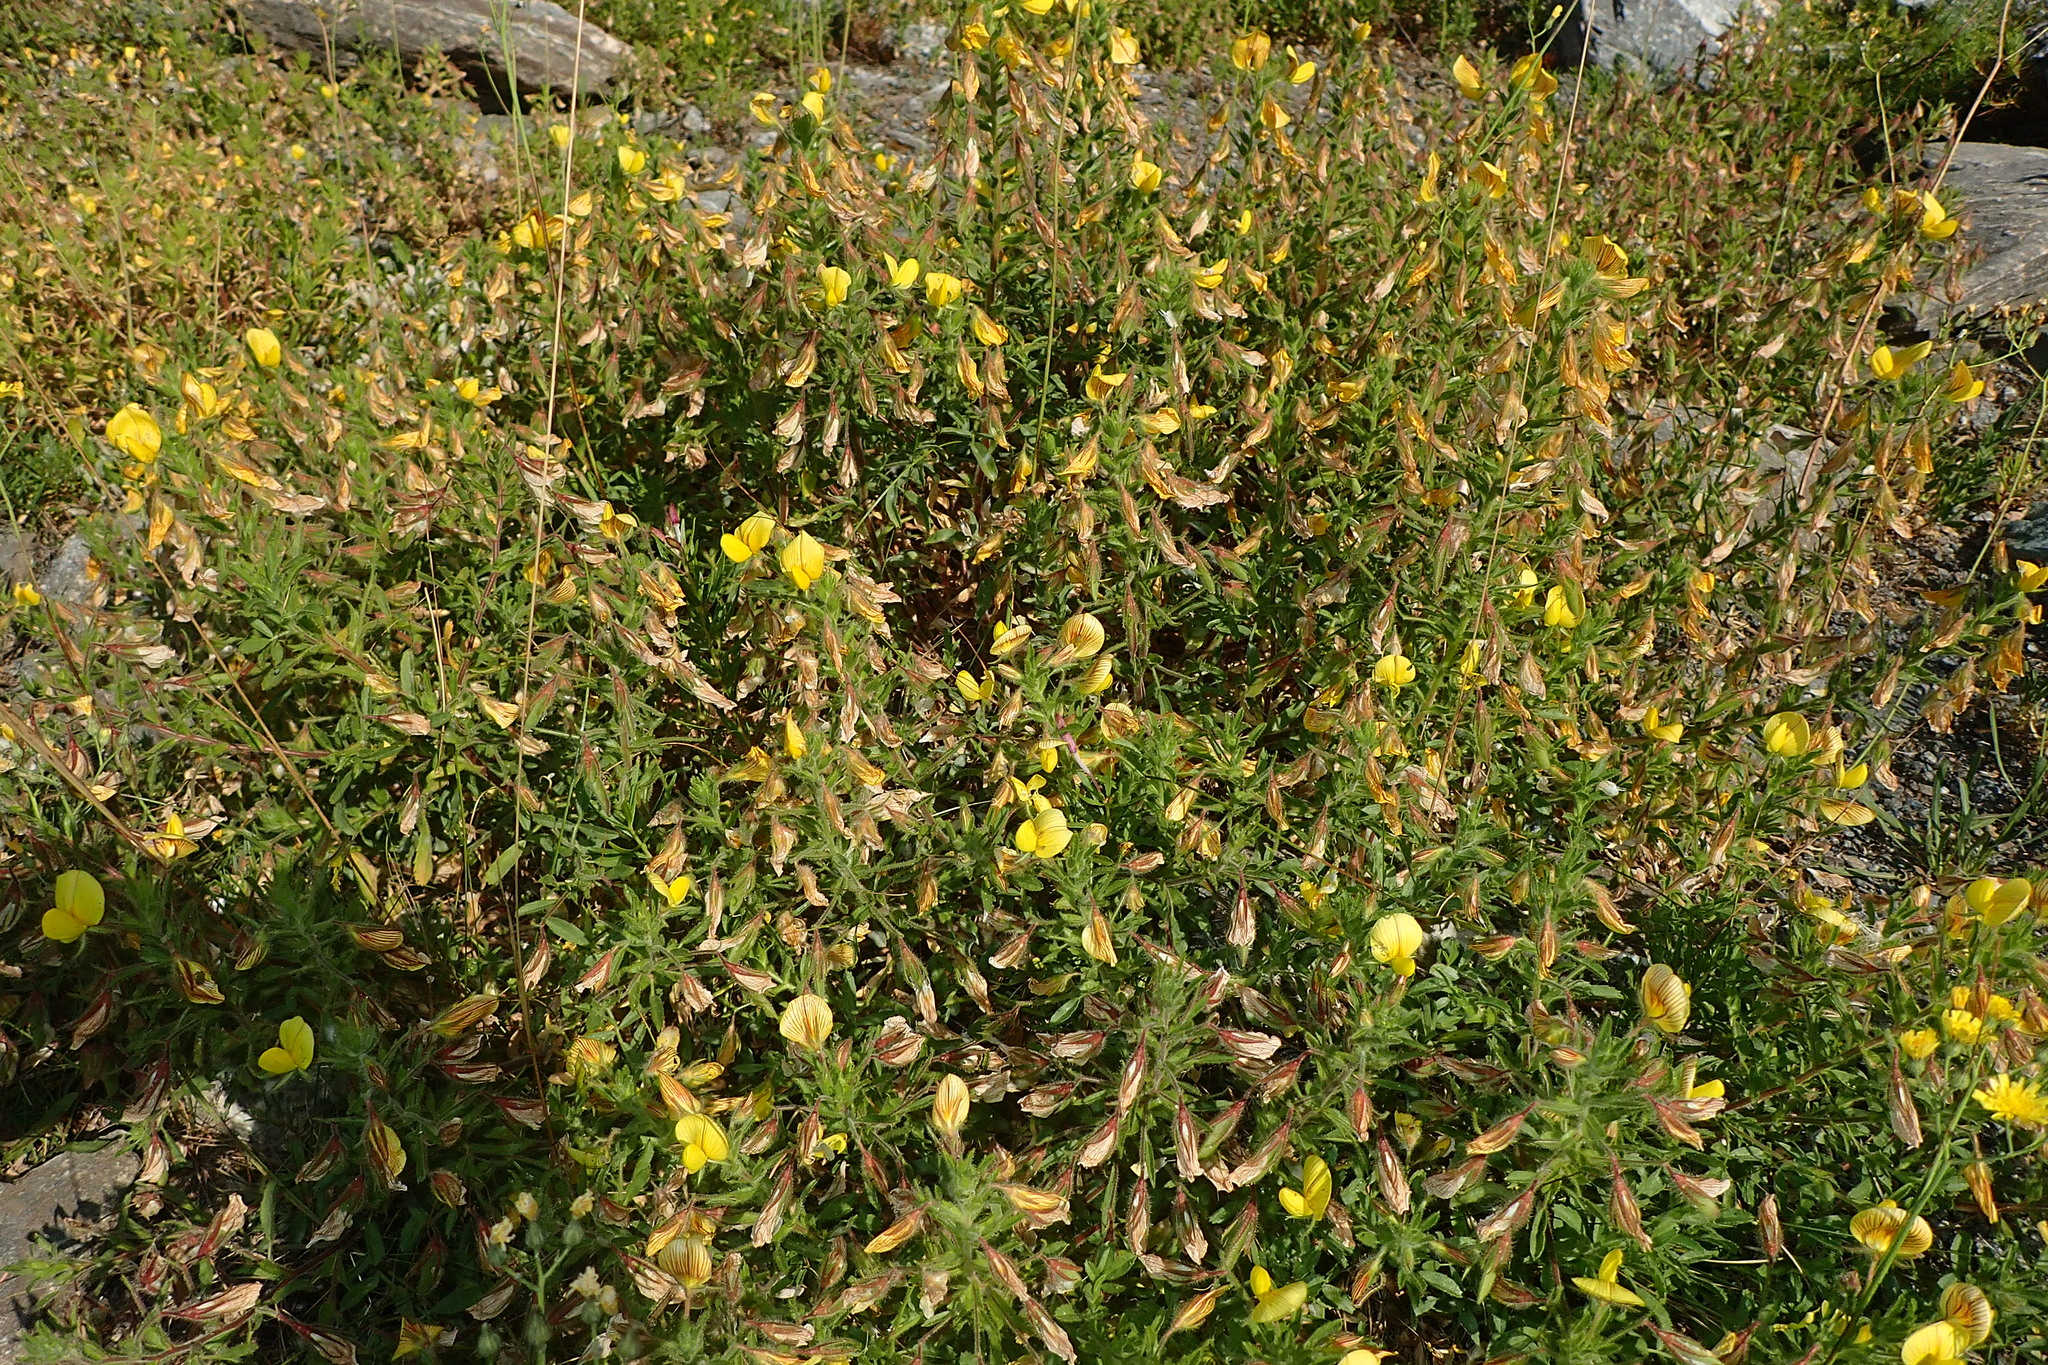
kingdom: Plantae
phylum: Tracheophyta
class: Magnoliopsida
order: Fabales
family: Fabaceae
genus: Ononis
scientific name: Ononis natrix
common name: Yellow restharrow
